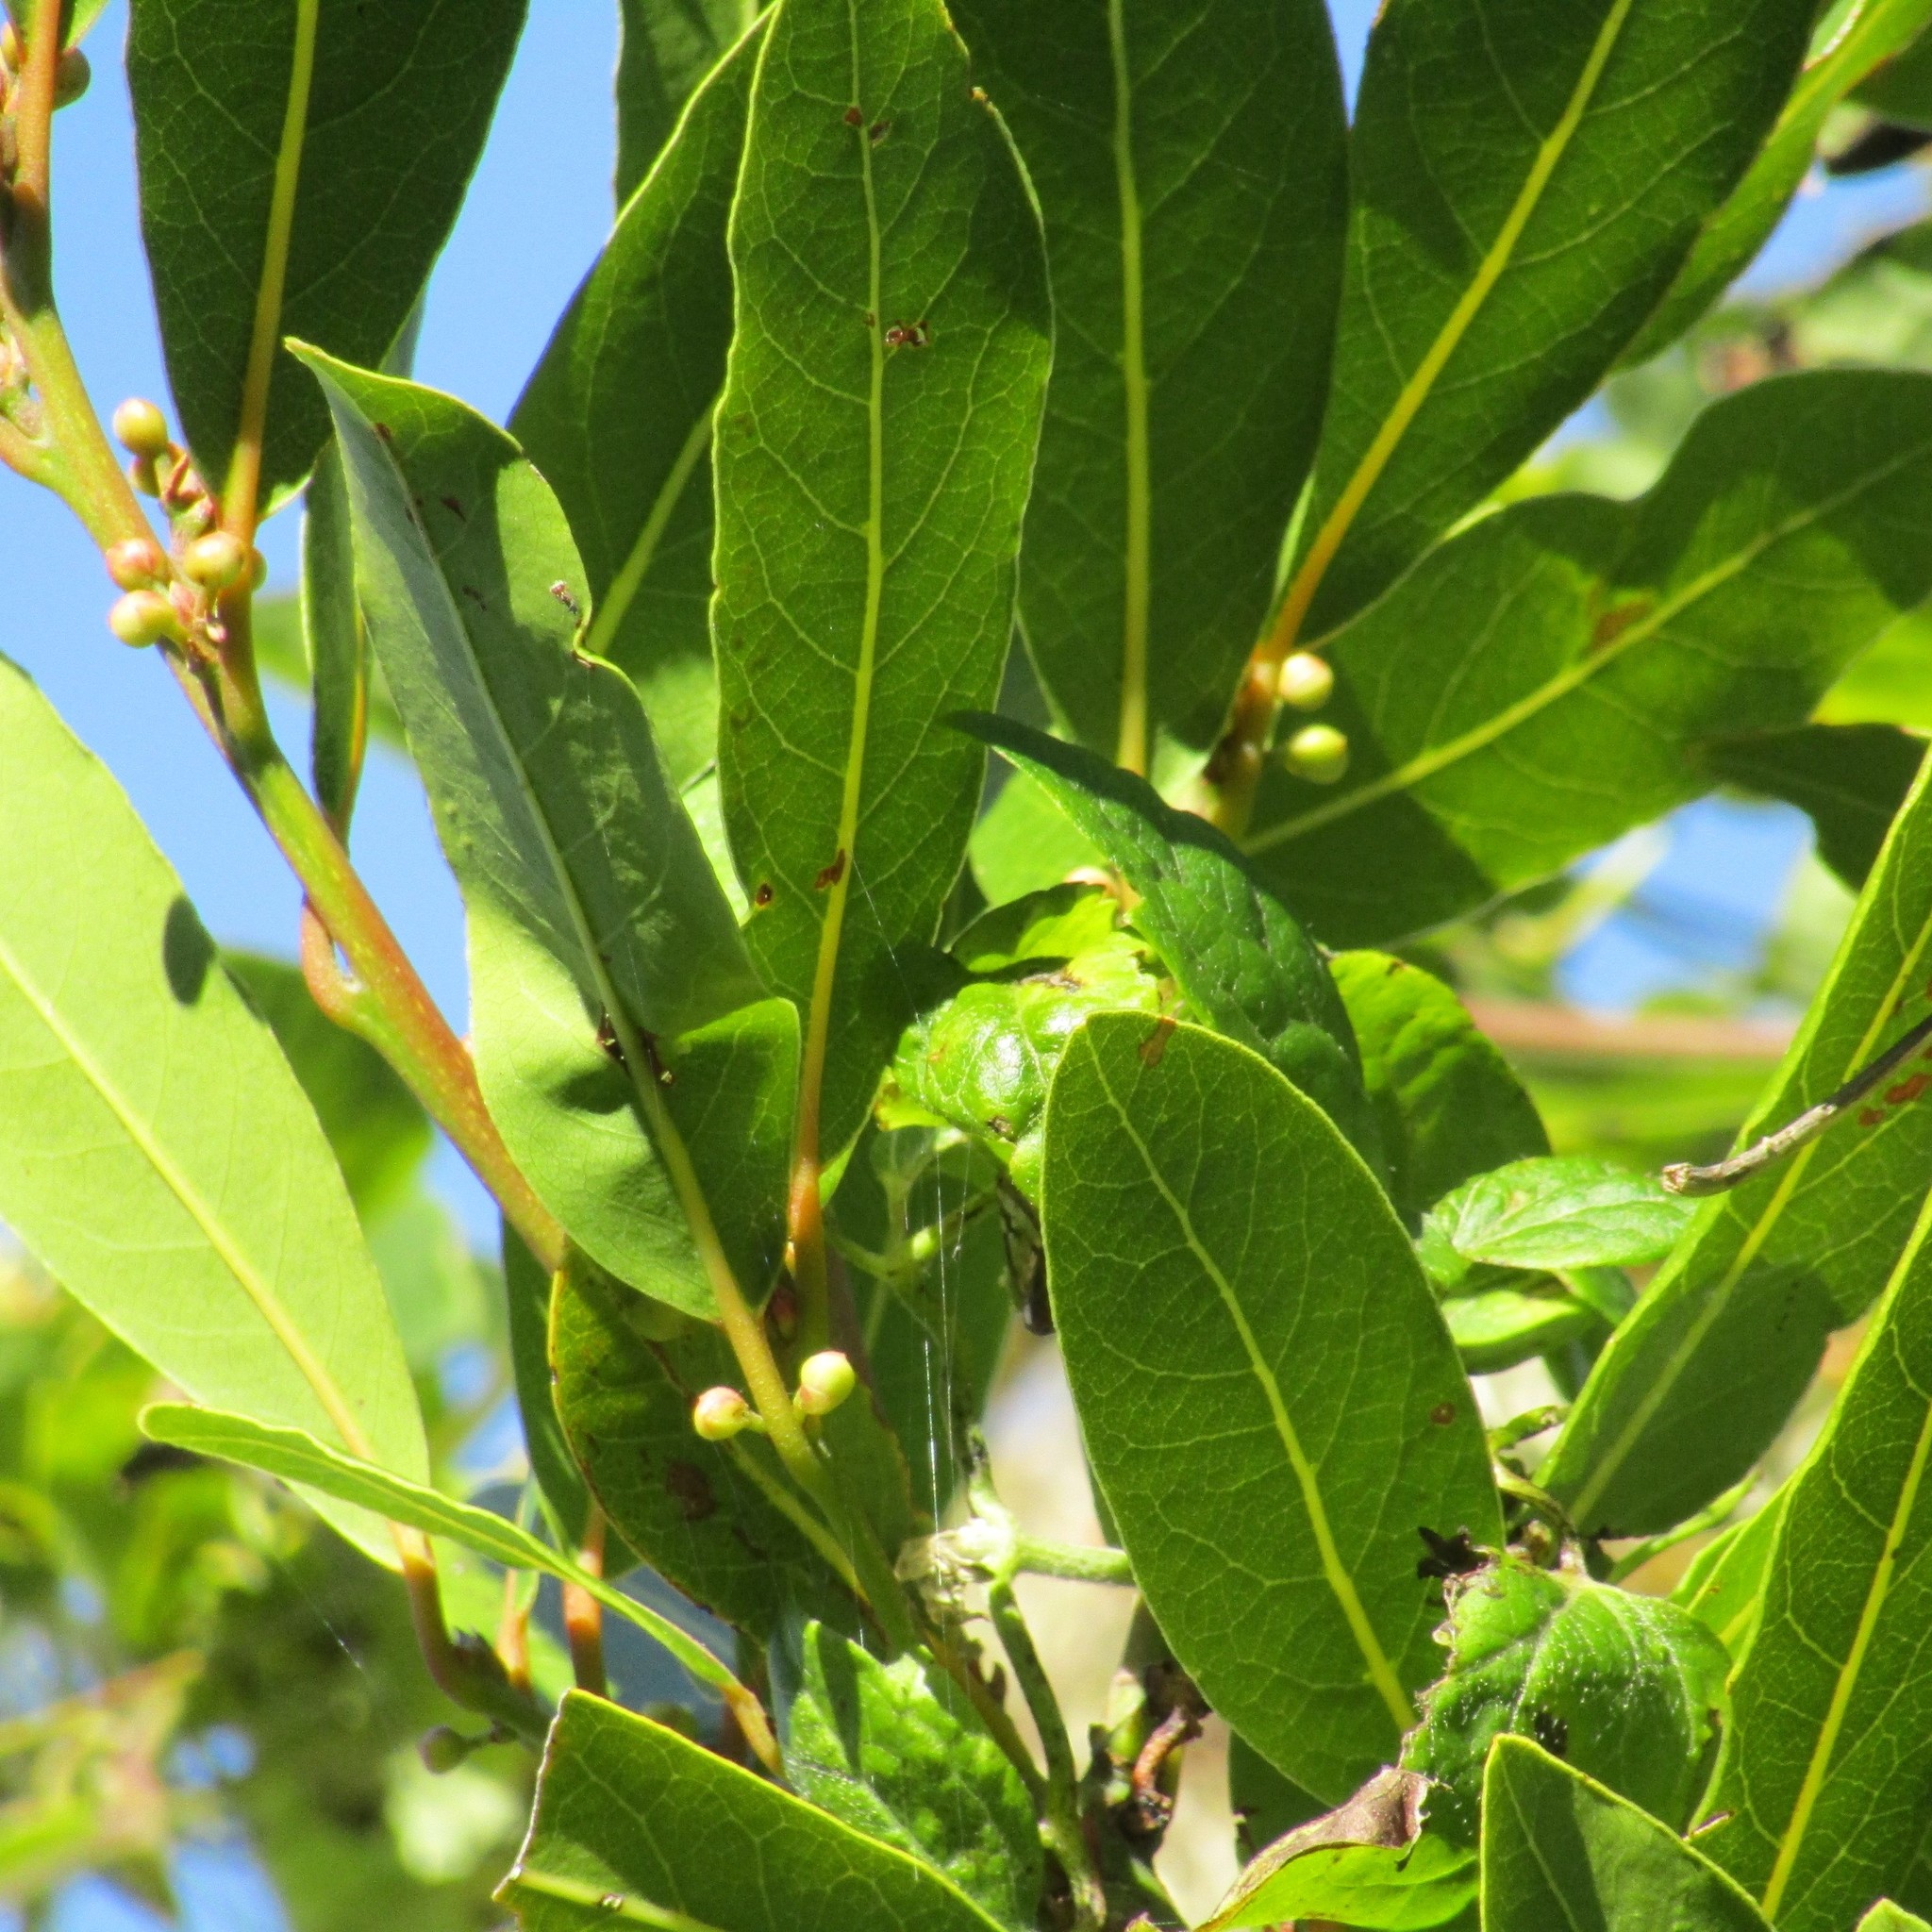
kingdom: Plantae
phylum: Tracheophyta
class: Magnoliopsida
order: Laurales
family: Lauraceae
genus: Laurus
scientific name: Laurus nobilis
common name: Bay
